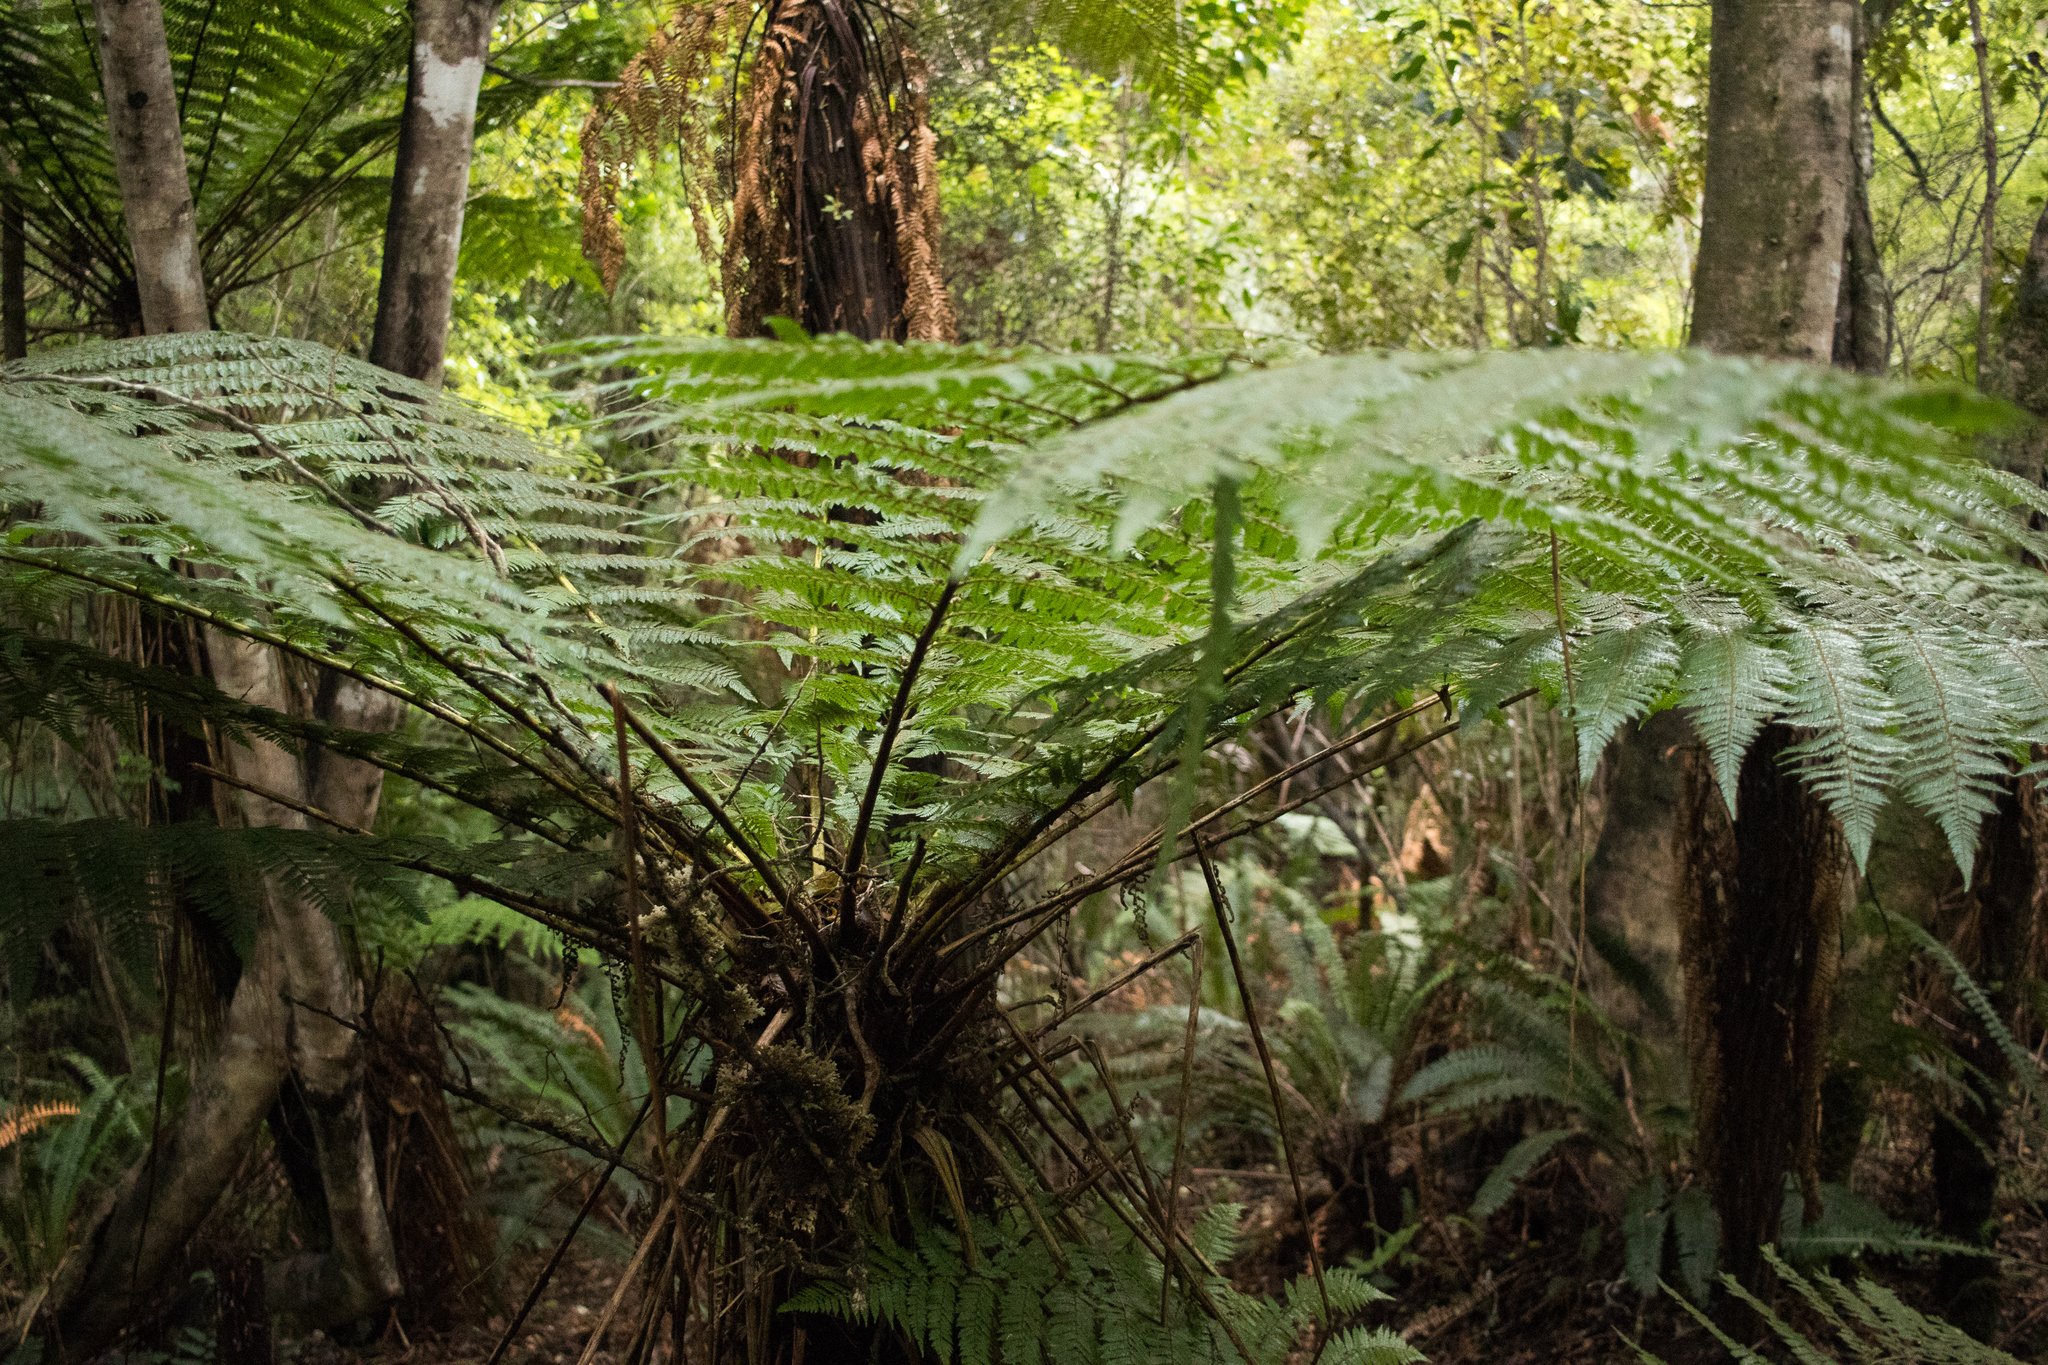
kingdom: Plantae
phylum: Tracheophyta
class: Polypodiopsida
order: Cyatheales
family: Cyatheaceae
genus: Alsophila
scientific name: Alsophila smithii
